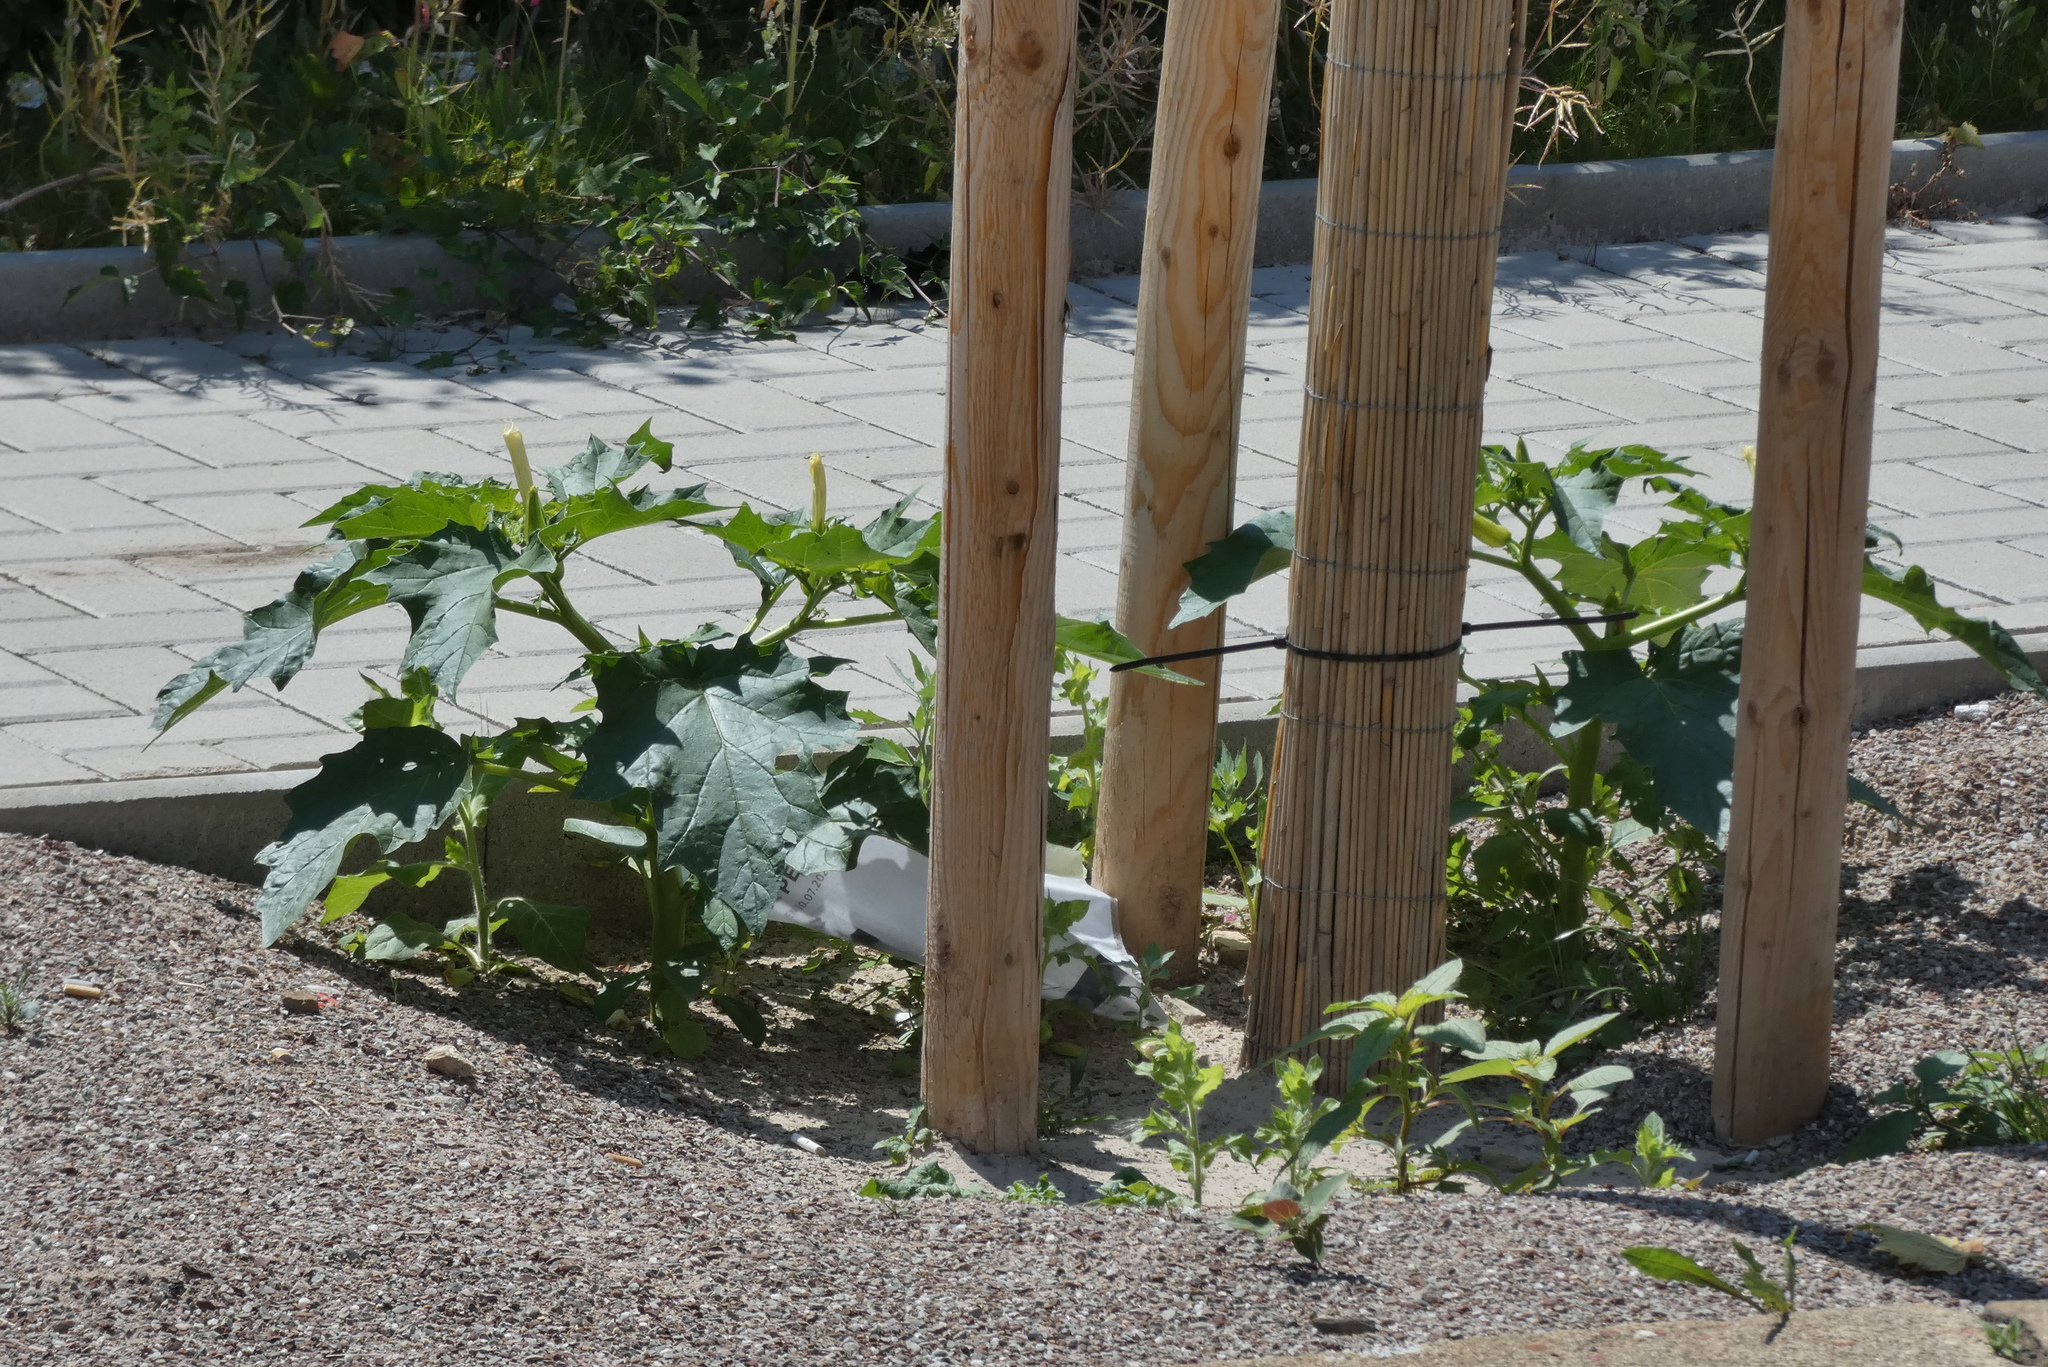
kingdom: Plantae
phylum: Tracheophyta
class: Magnoliopsida
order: Solanales
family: Solanaceae
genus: Datura
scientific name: Datura stramonium
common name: Thorn-apple
